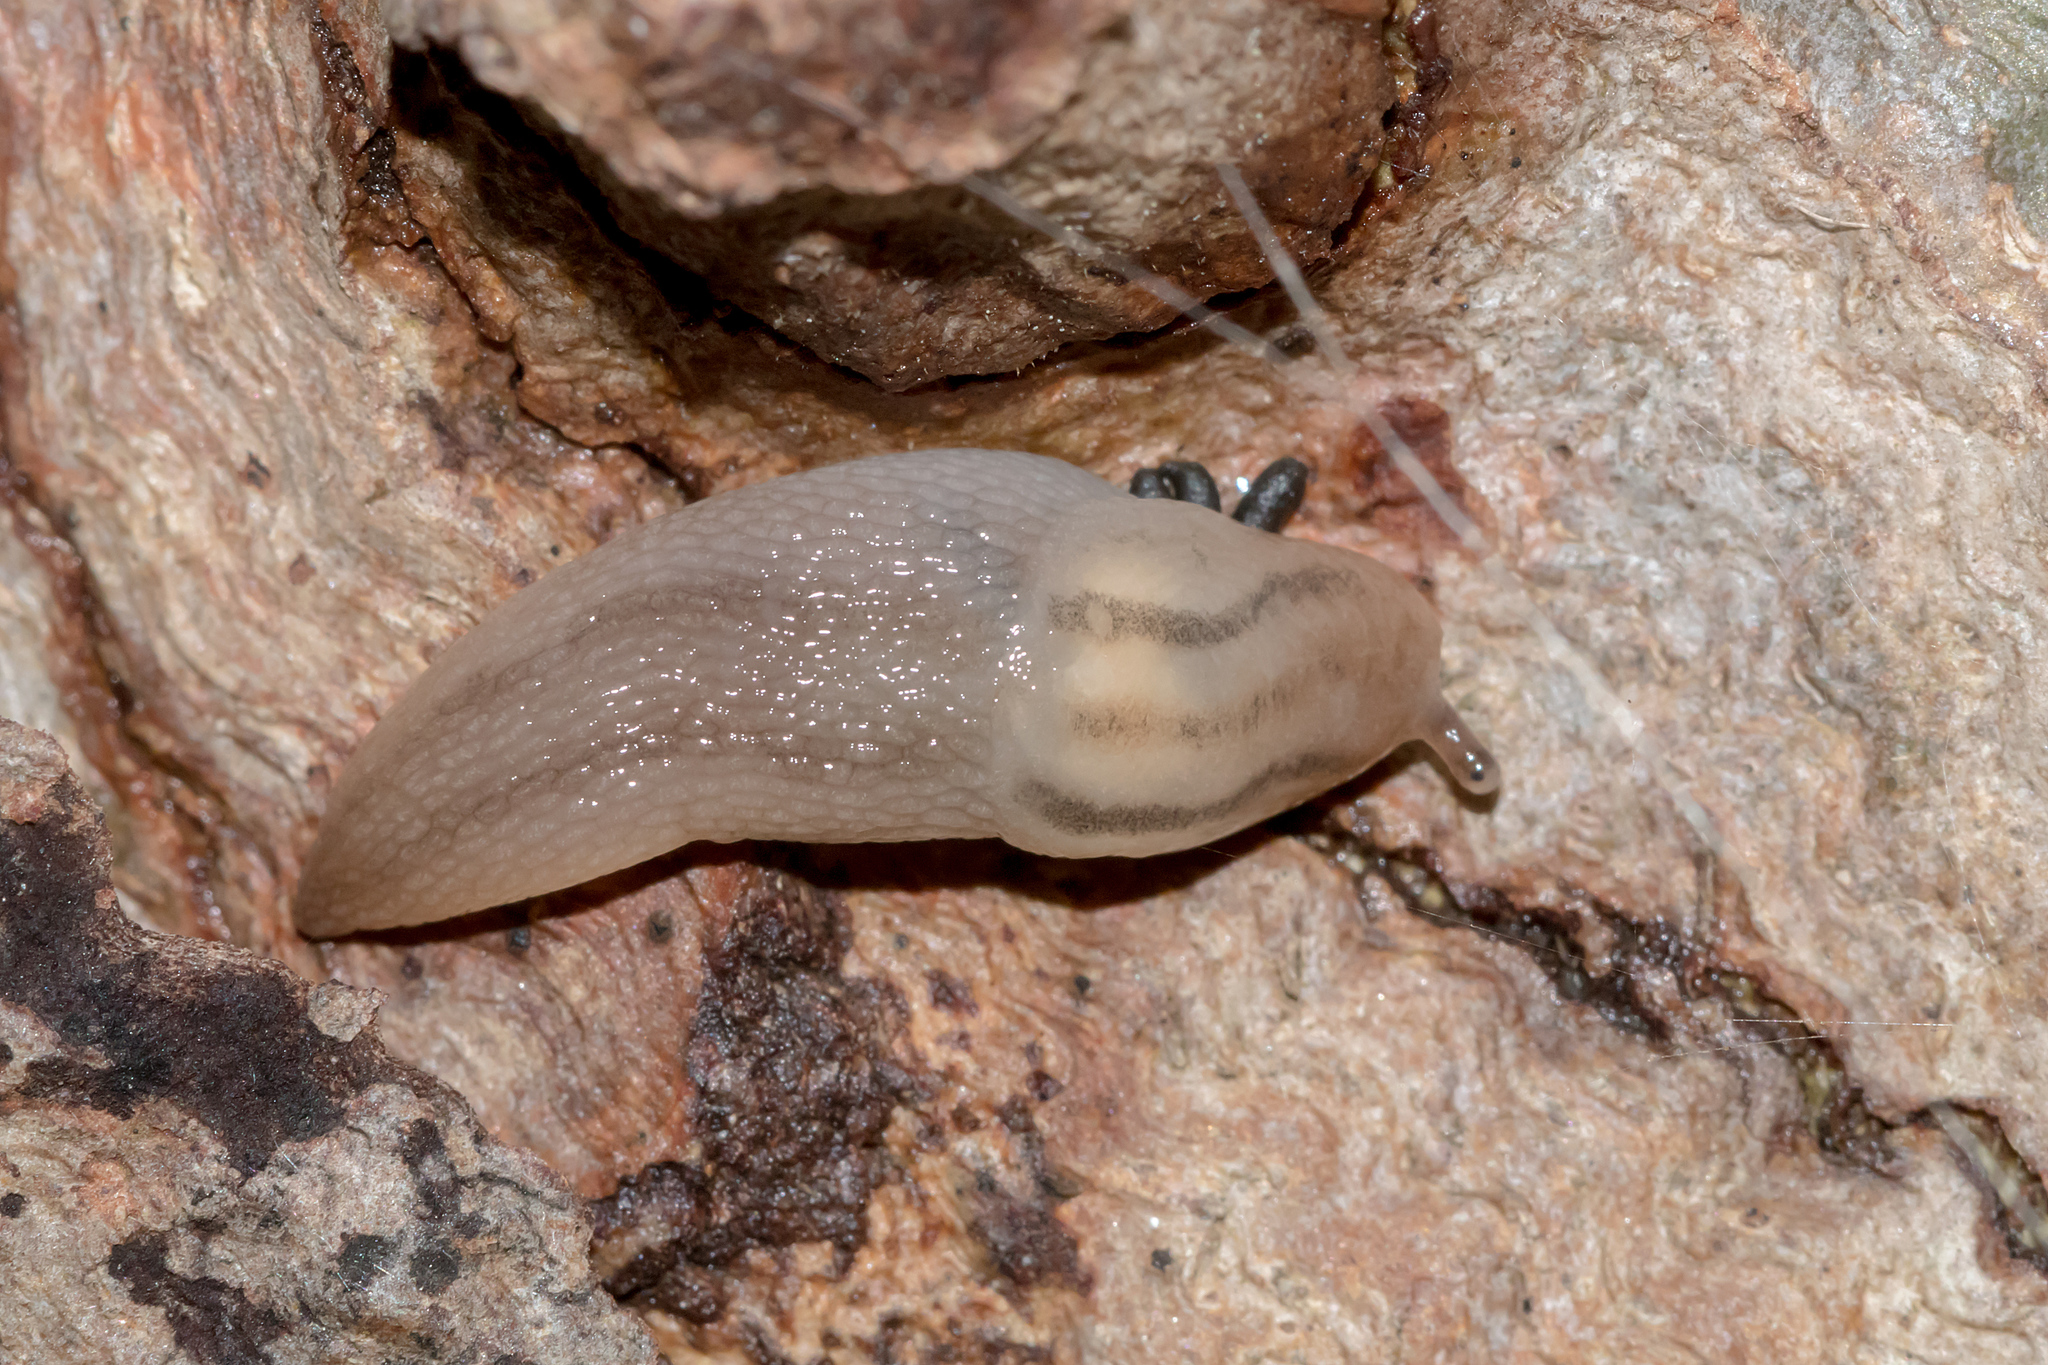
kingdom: Animalia
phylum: Mollusca
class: Gastropoda
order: Stylommatophora
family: Limacidae
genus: Ambigolimax
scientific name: Ambigolimax
